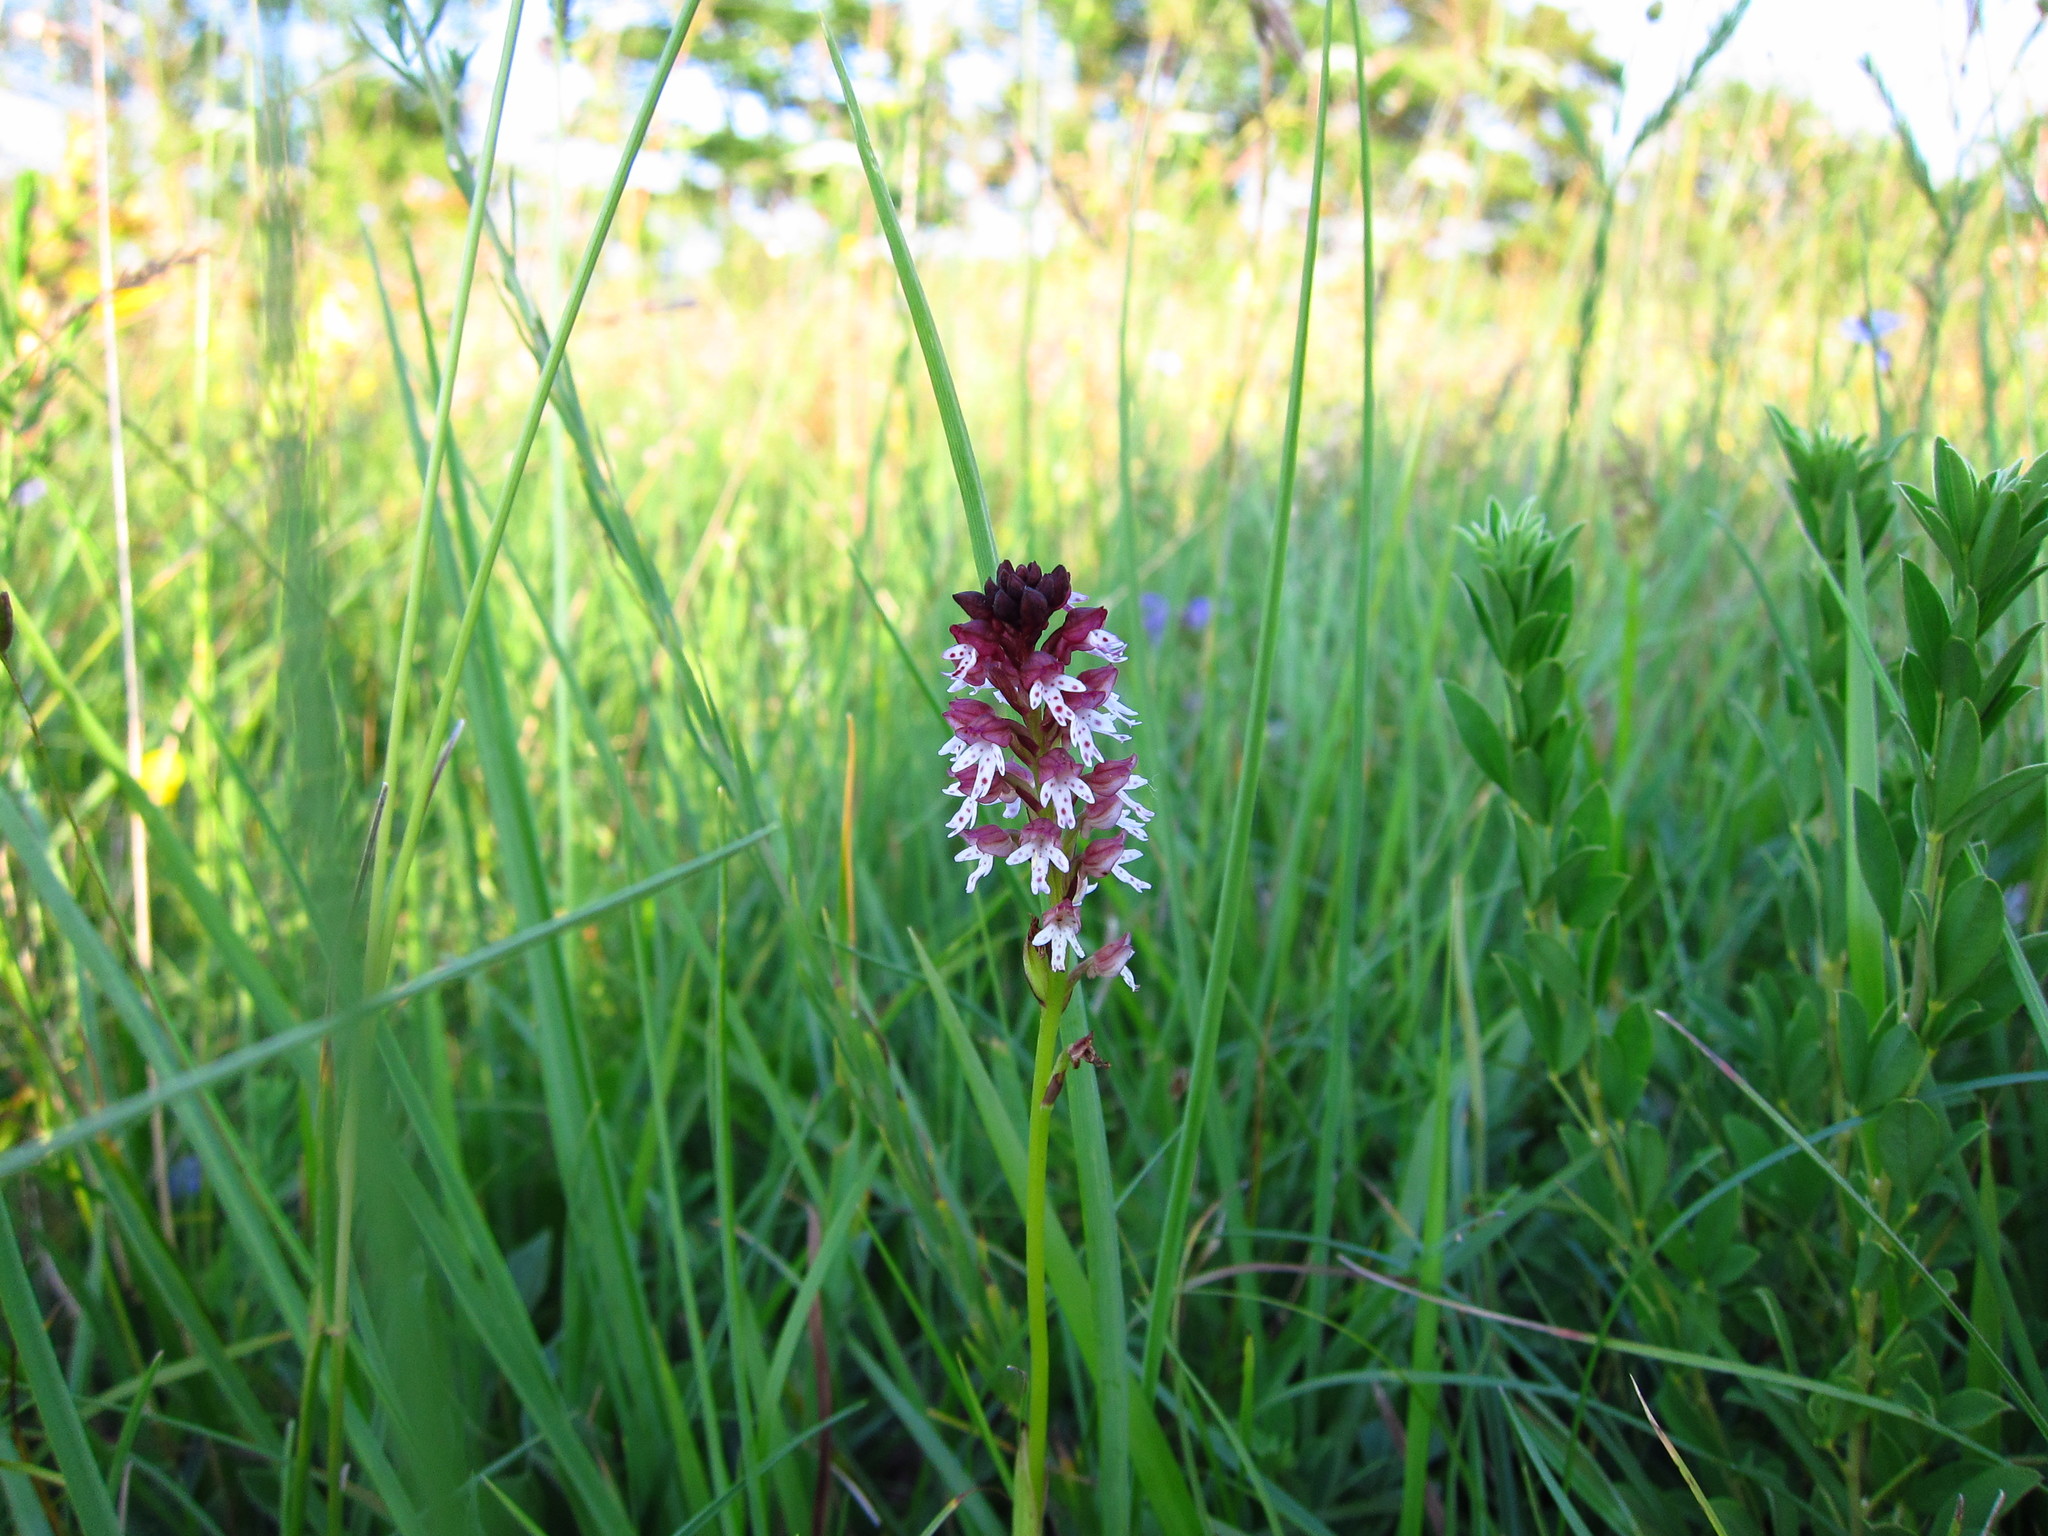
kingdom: Plantae
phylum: Tracheophyta
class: Liliopsida
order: Asparagales
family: Orchidaceae
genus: Neotinea
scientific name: Neotinea ustulata
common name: Burnt orchid
